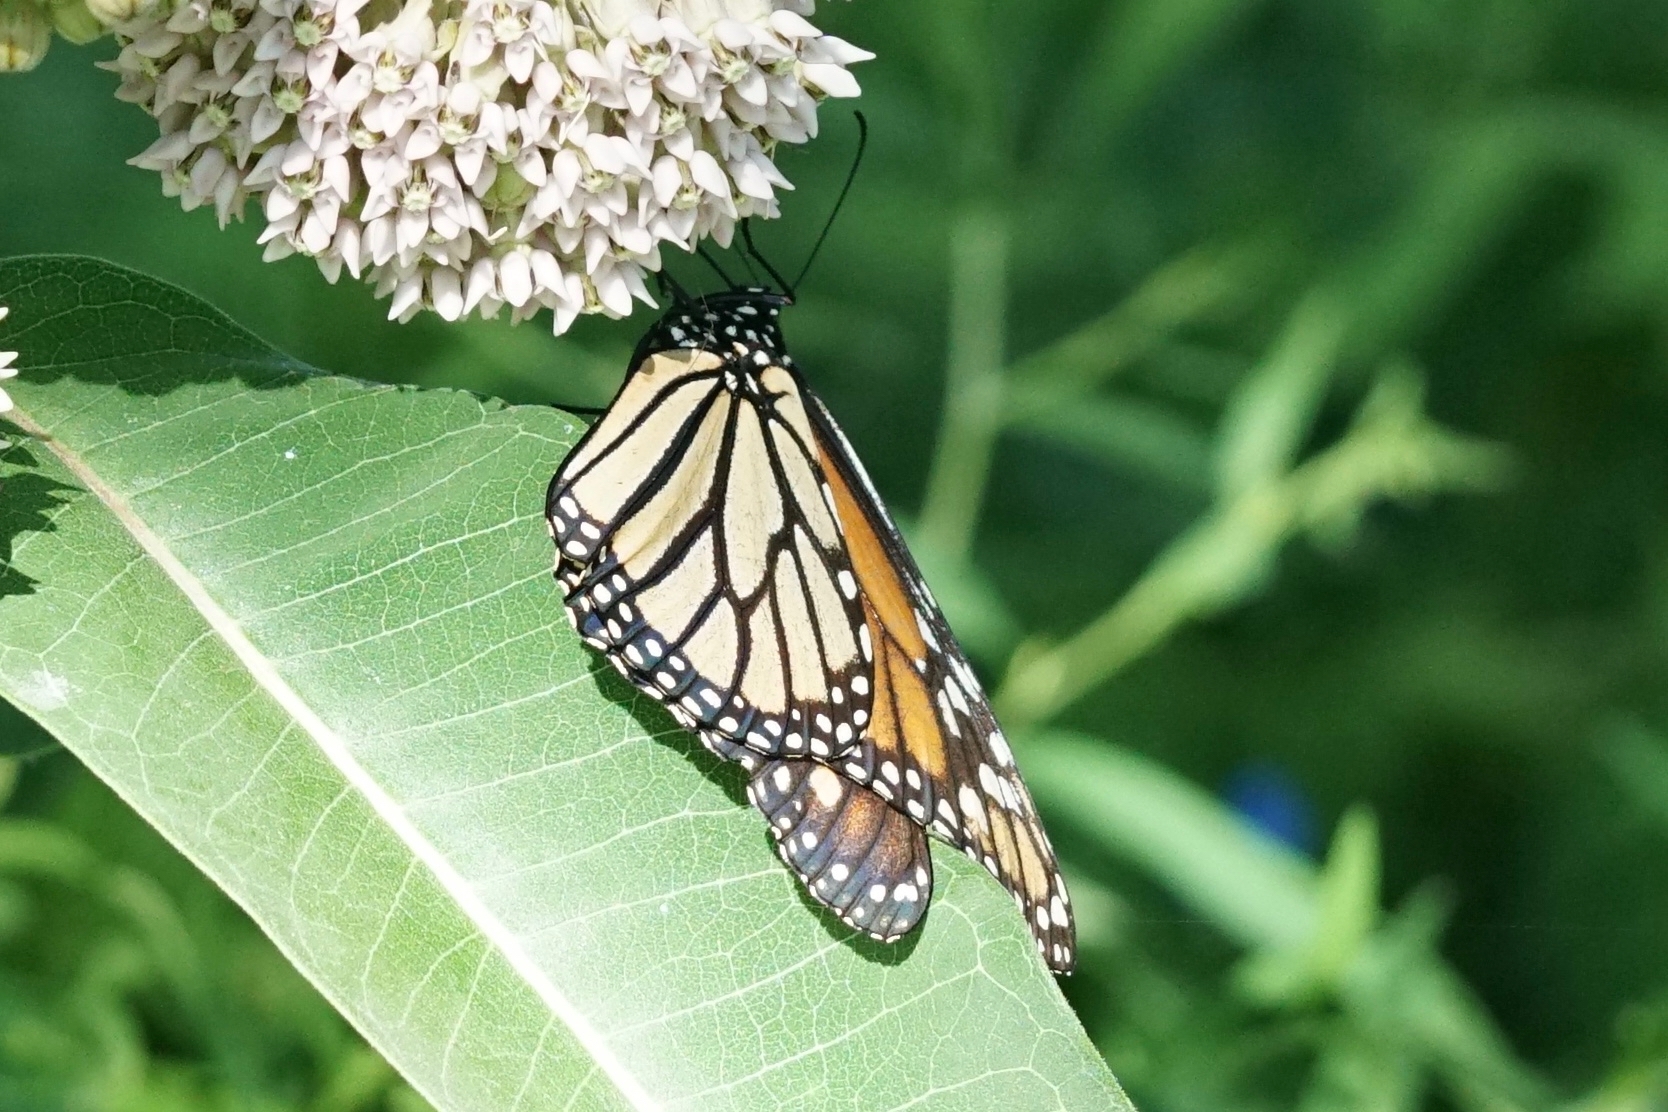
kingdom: Animalia
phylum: Arthropoda
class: Insecta
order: Lepidoptera
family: Nymphalidae
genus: Danaus
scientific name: Danaus plexippus
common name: Monarch
